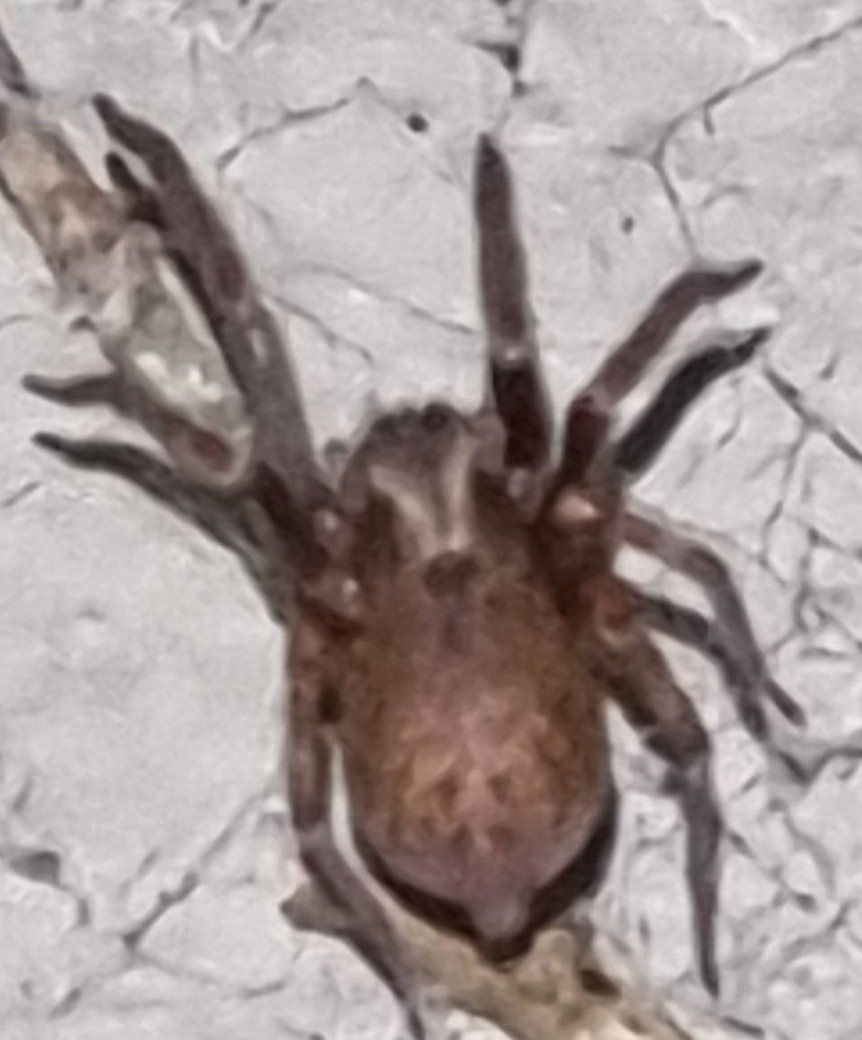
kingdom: Animalia
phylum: Arthropoda
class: Arachnida
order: Araneae
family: Desidae
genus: Badumna
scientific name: Badumna longinqua
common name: Gray house spider
